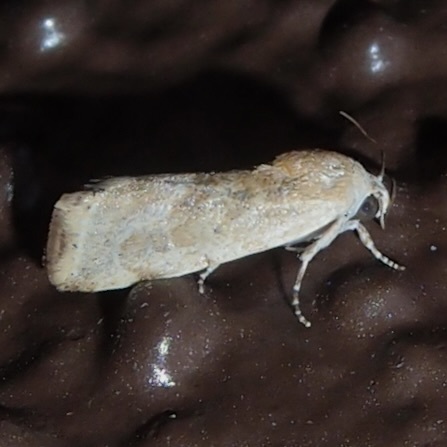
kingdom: Animalia
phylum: Arthropoda
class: Insecta
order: Lepidoptera
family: Noctuidae
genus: Acontia
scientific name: Acontia fasciatella
